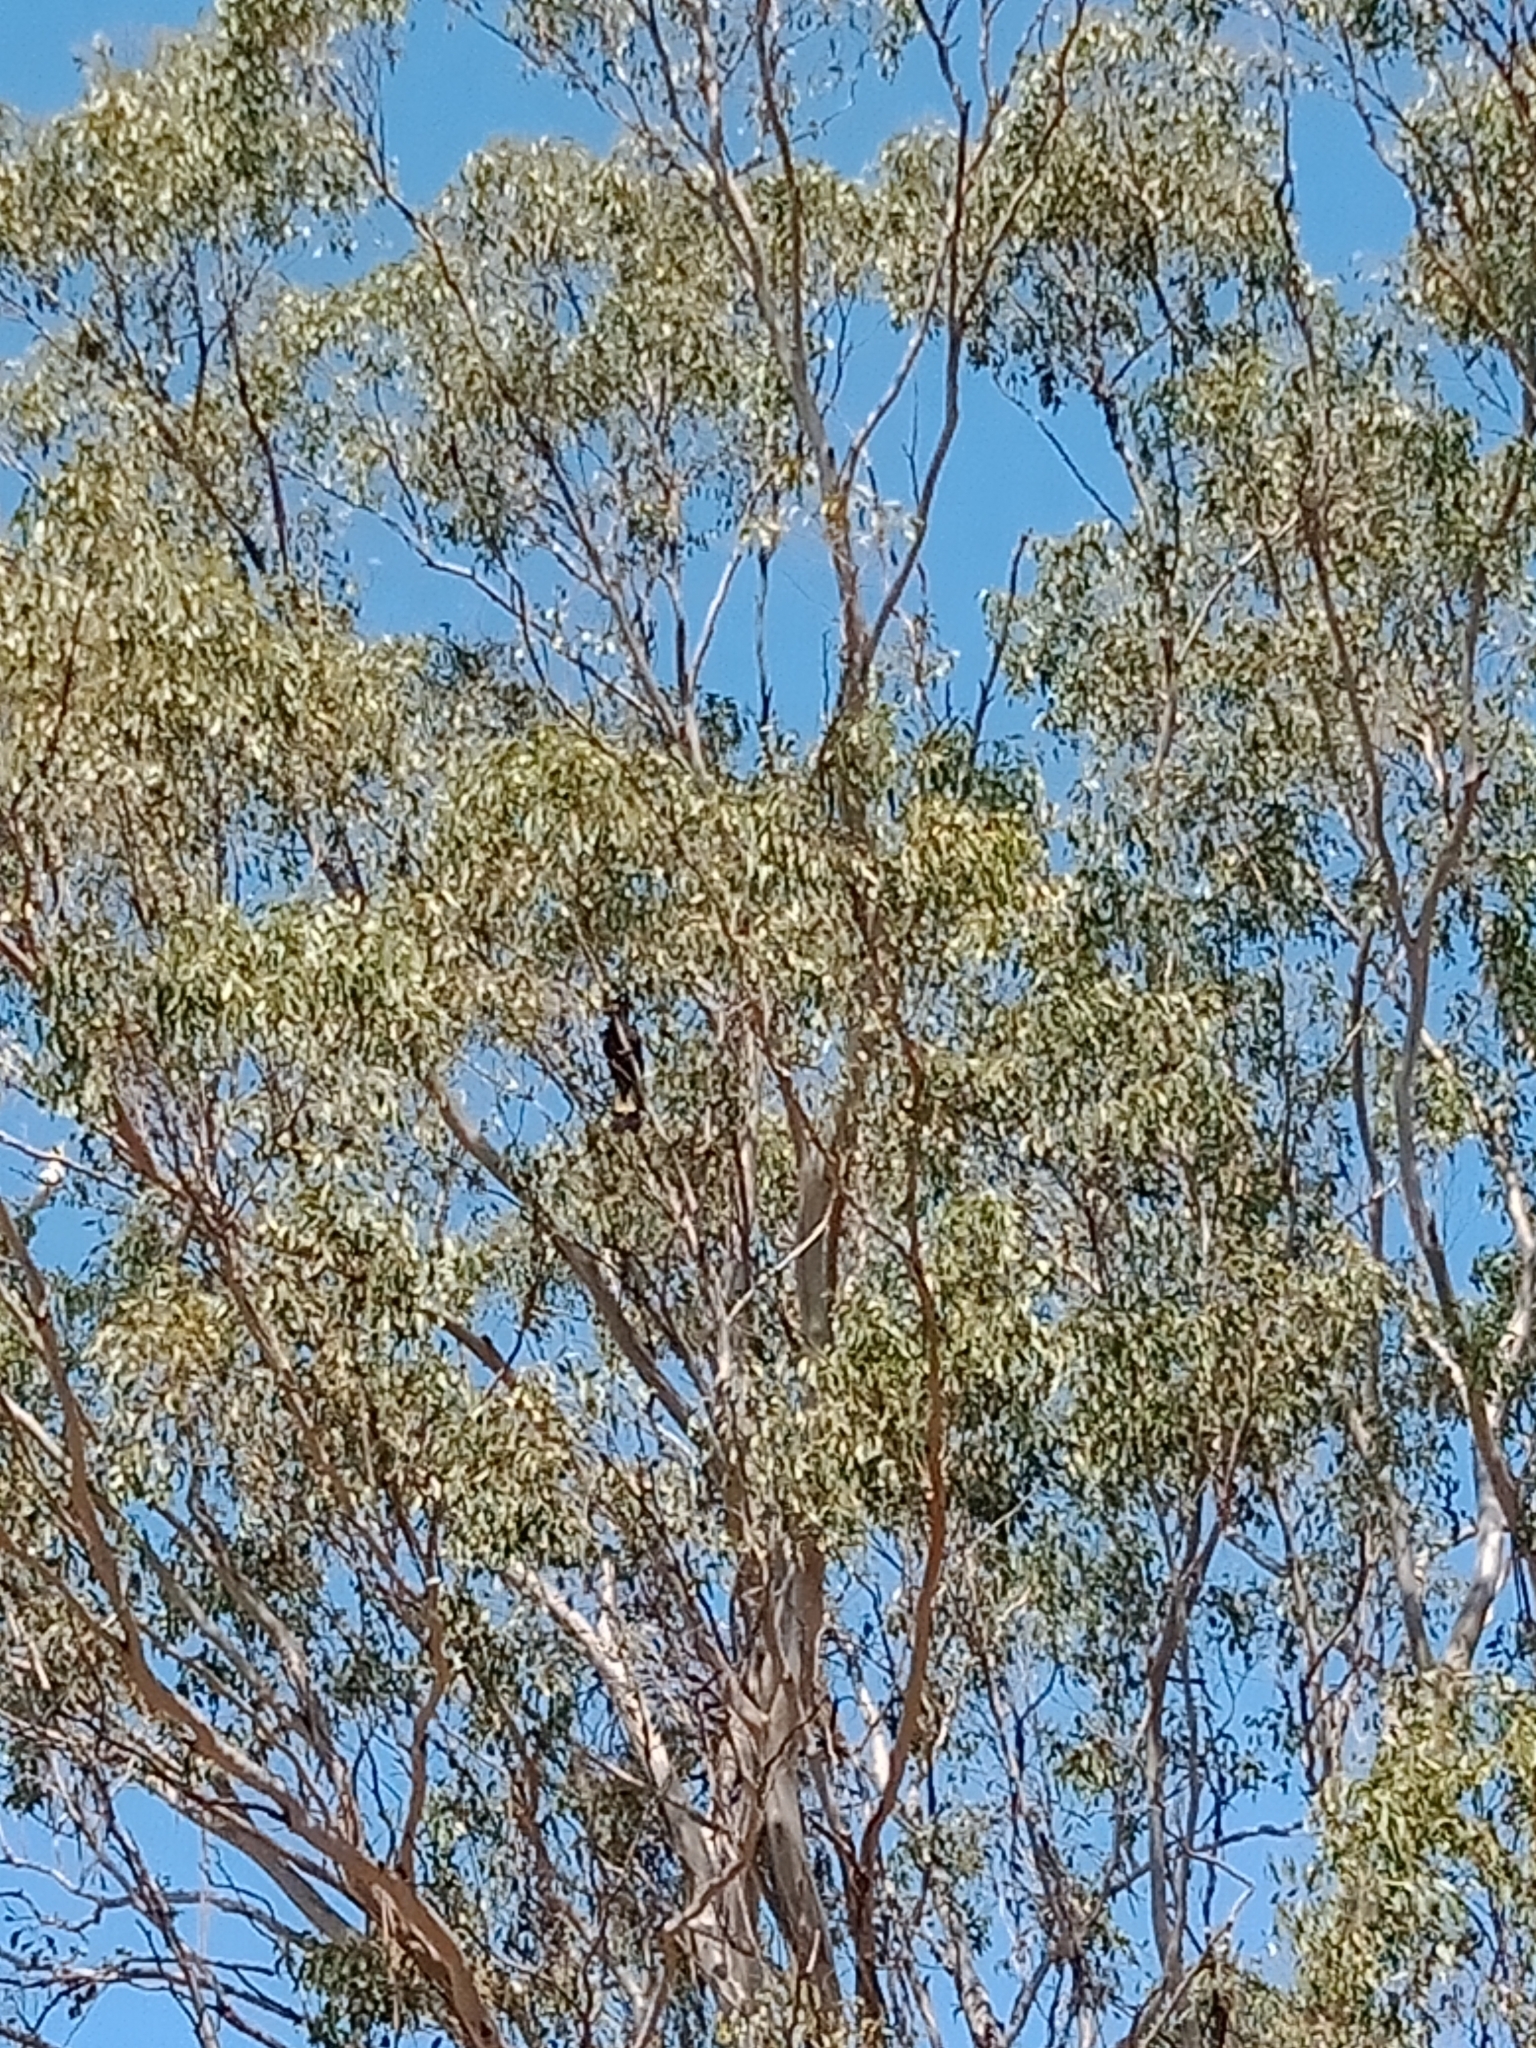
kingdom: Animalia
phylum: Chordata
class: Aves
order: Psittaciformes
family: Cacatuidae
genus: Zanda
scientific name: Zanda funerea
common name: Yellow-tailed black-cockatoo
